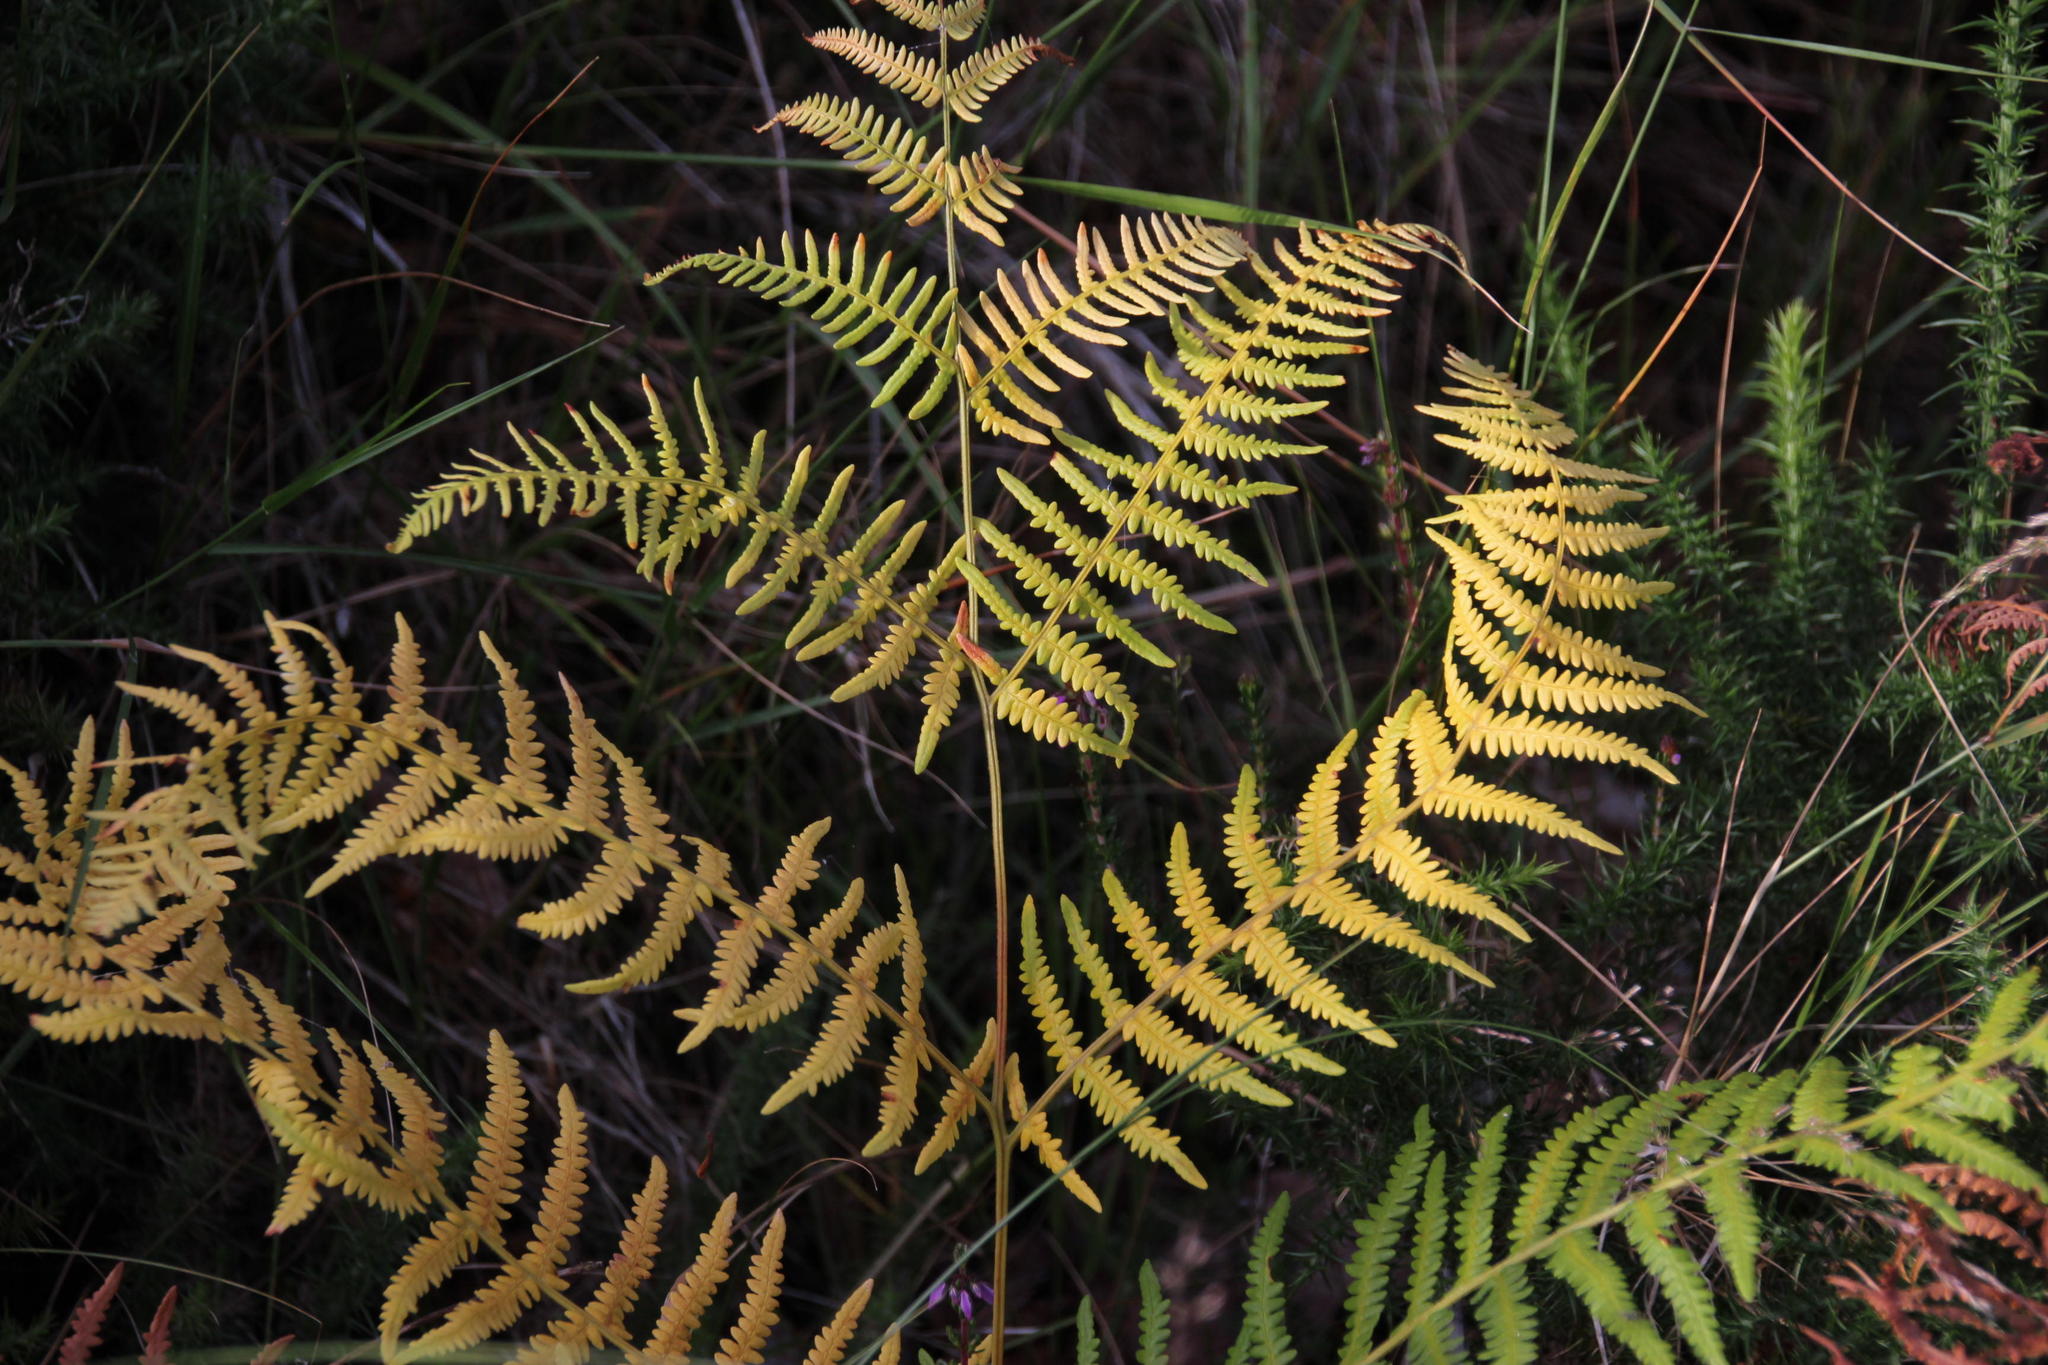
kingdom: Plantae
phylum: Tracheophyta
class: Polypodiopsida
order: Polypodiales
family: Dennstaedtiaceae
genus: Pteridium
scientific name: Pteridium aquilinum
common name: Bracken
